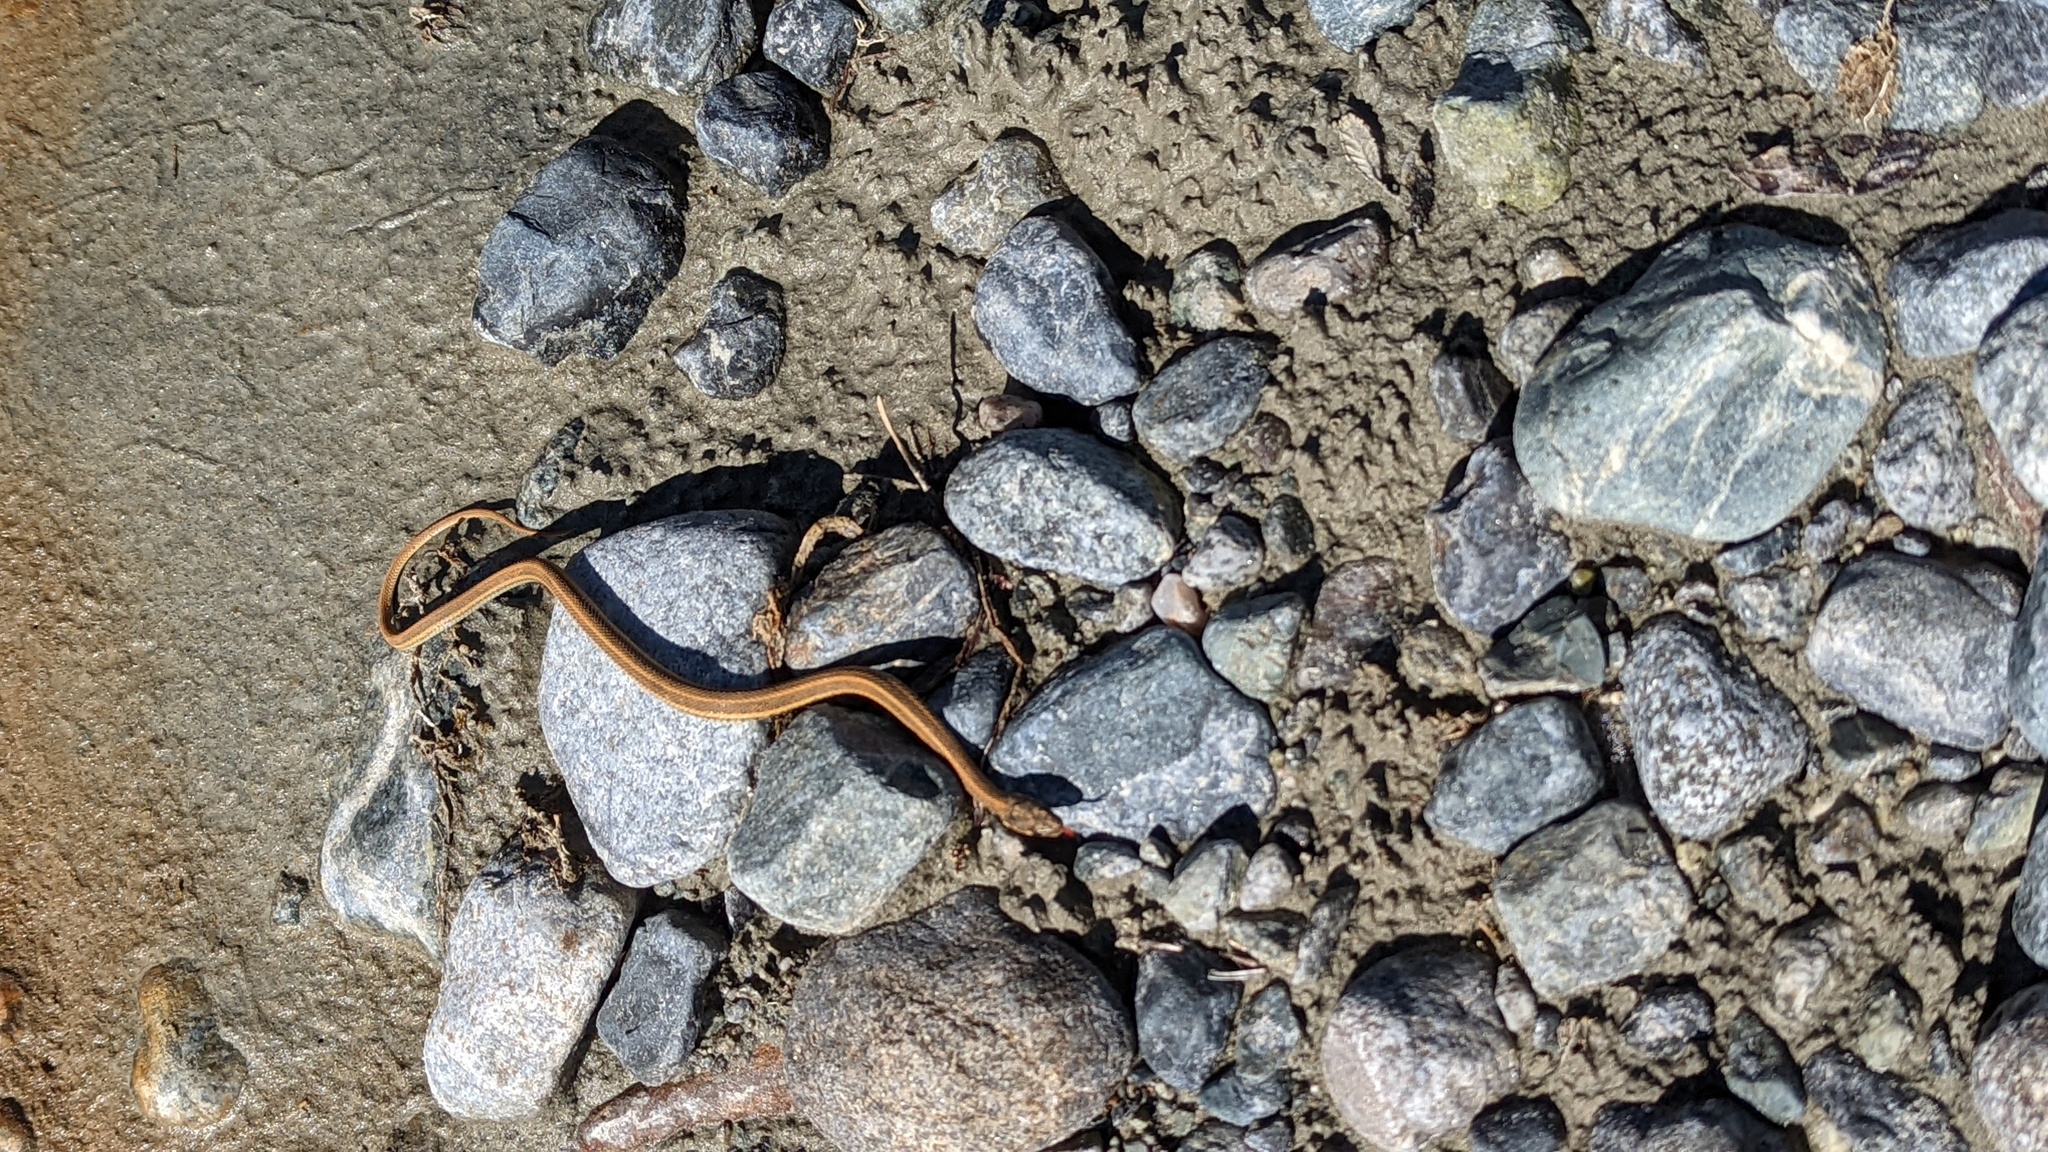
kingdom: Animalia
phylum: Chordata
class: Squamata
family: Colubridae
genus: Thamnophis
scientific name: Thamnophis ordinoides
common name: Northwestern garter snake
